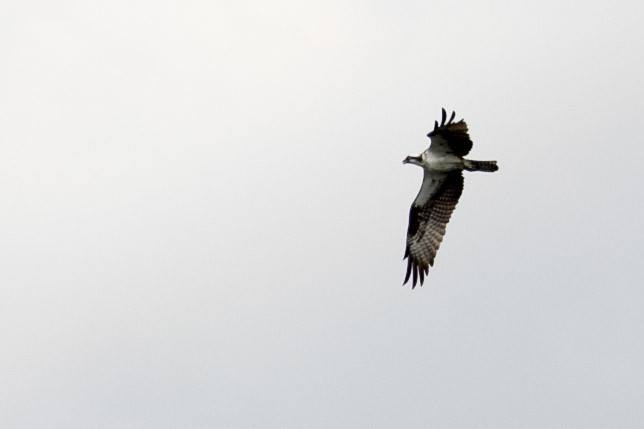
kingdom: Animalia
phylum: Chordata
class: Aves
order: Accipitriformes
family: Pandionidae
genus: Pandion
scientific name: Pandion haliaetus
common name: Osprey
